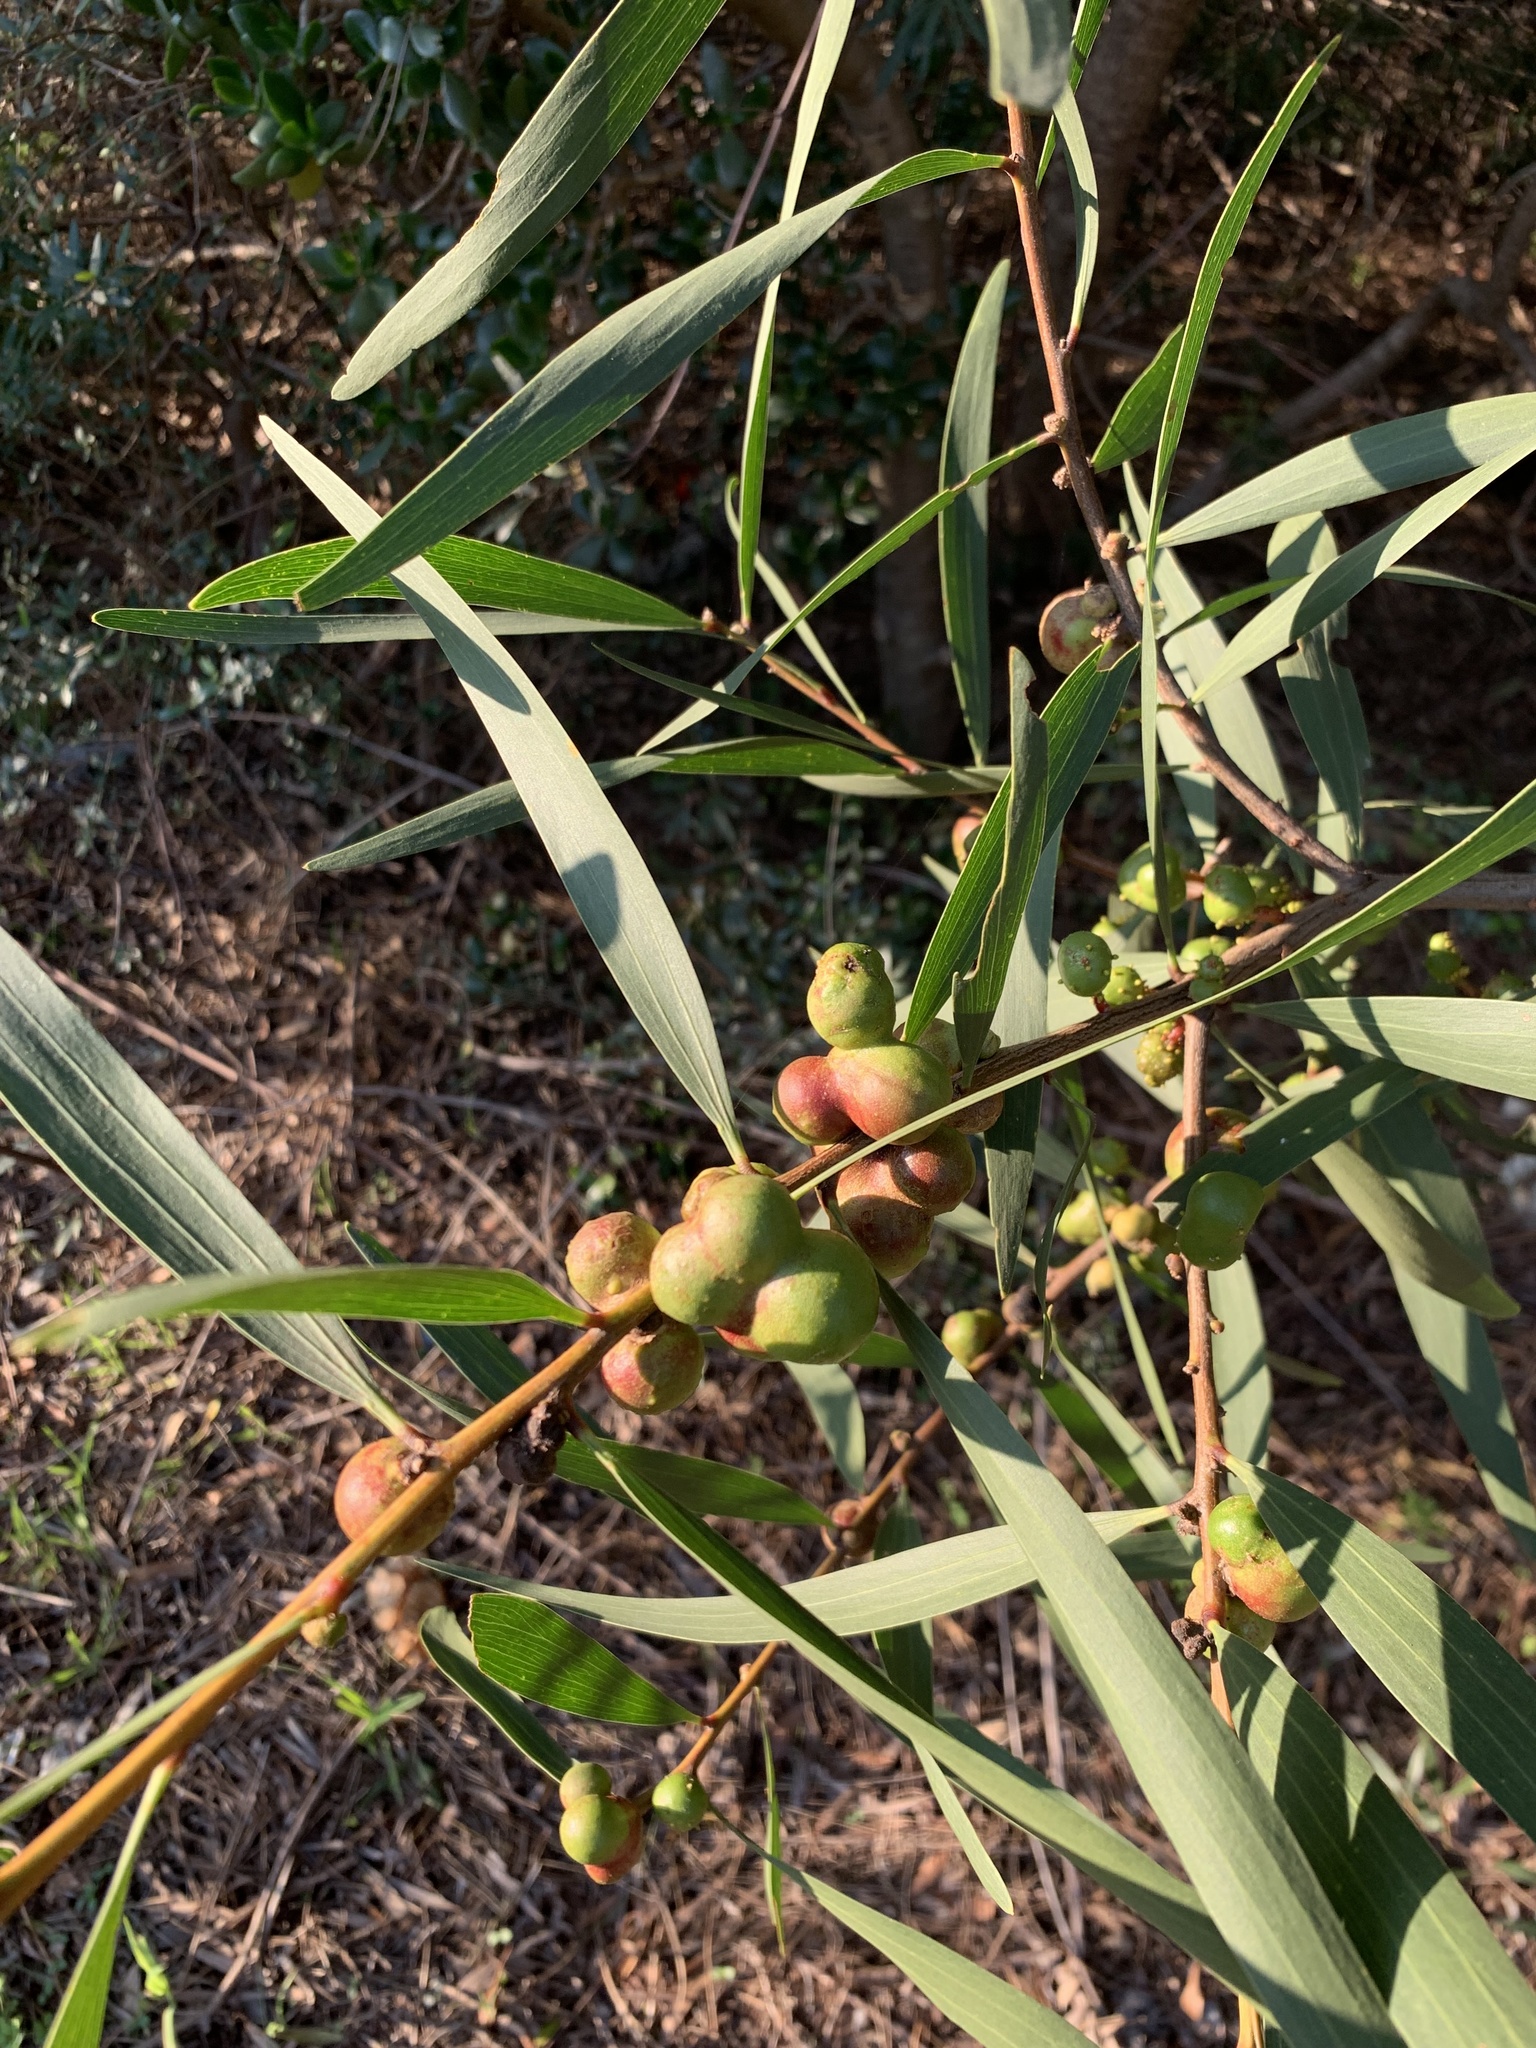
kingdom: Plantae
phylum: Tracheophyta
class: Magnoliopsida
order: Fabales
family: Fabaceae
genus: Acacia
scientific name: Acacia longifolia
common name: Sydney golden wattle
